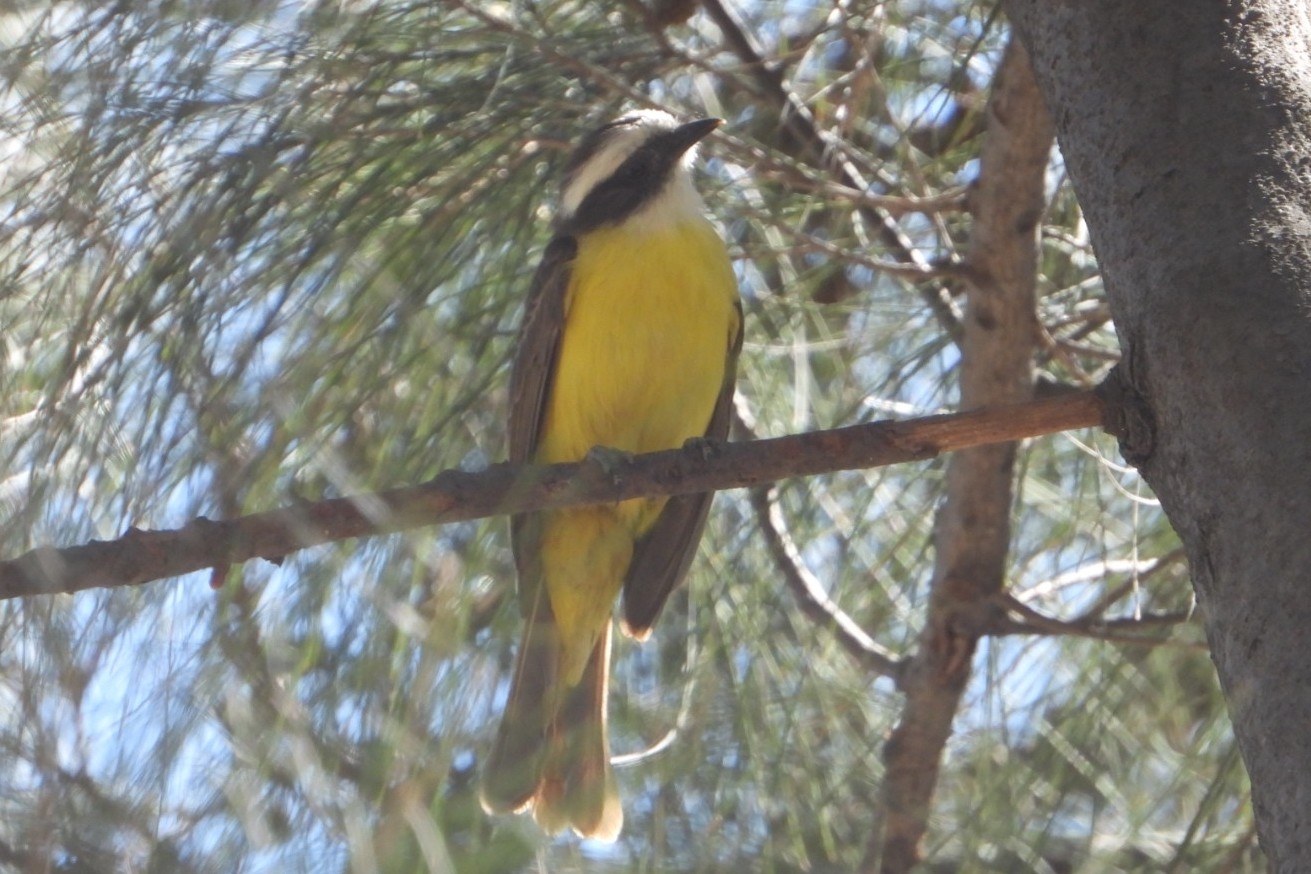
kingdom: Animalia
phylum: Chordata
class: Aves
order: Passeriformes
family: Tyrannidae
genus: Myiozetetes
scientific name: Myiozetetes similis
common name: Social flycatcher
